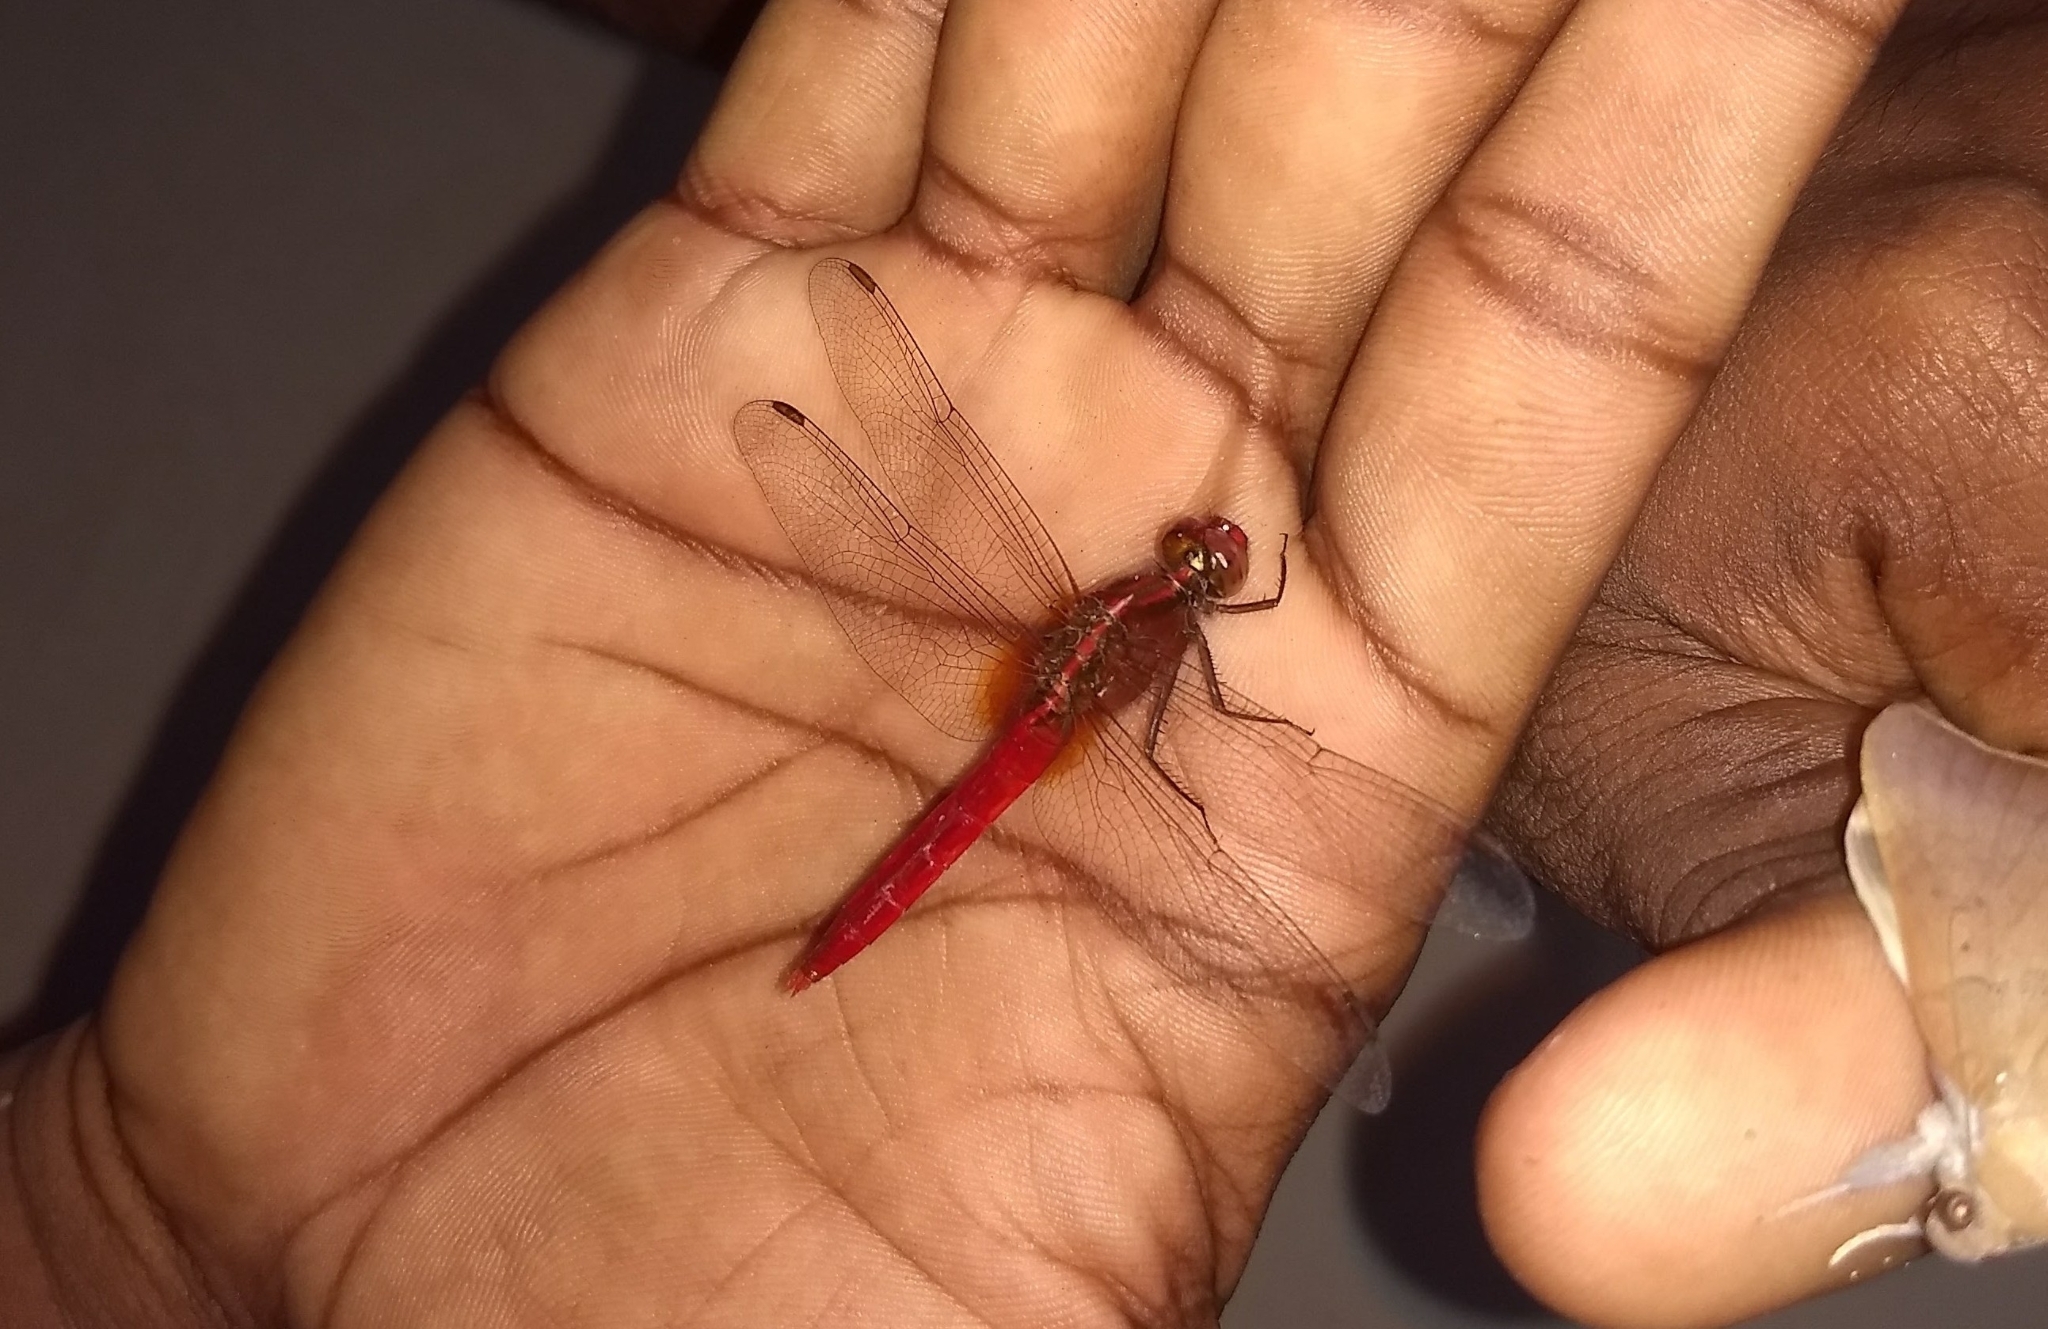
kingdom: Animalia
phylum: Arthropoda
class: Insecta
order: Odonata
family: Libellulidae
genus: Rhodothemis
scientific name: Rhodothemis rufa
